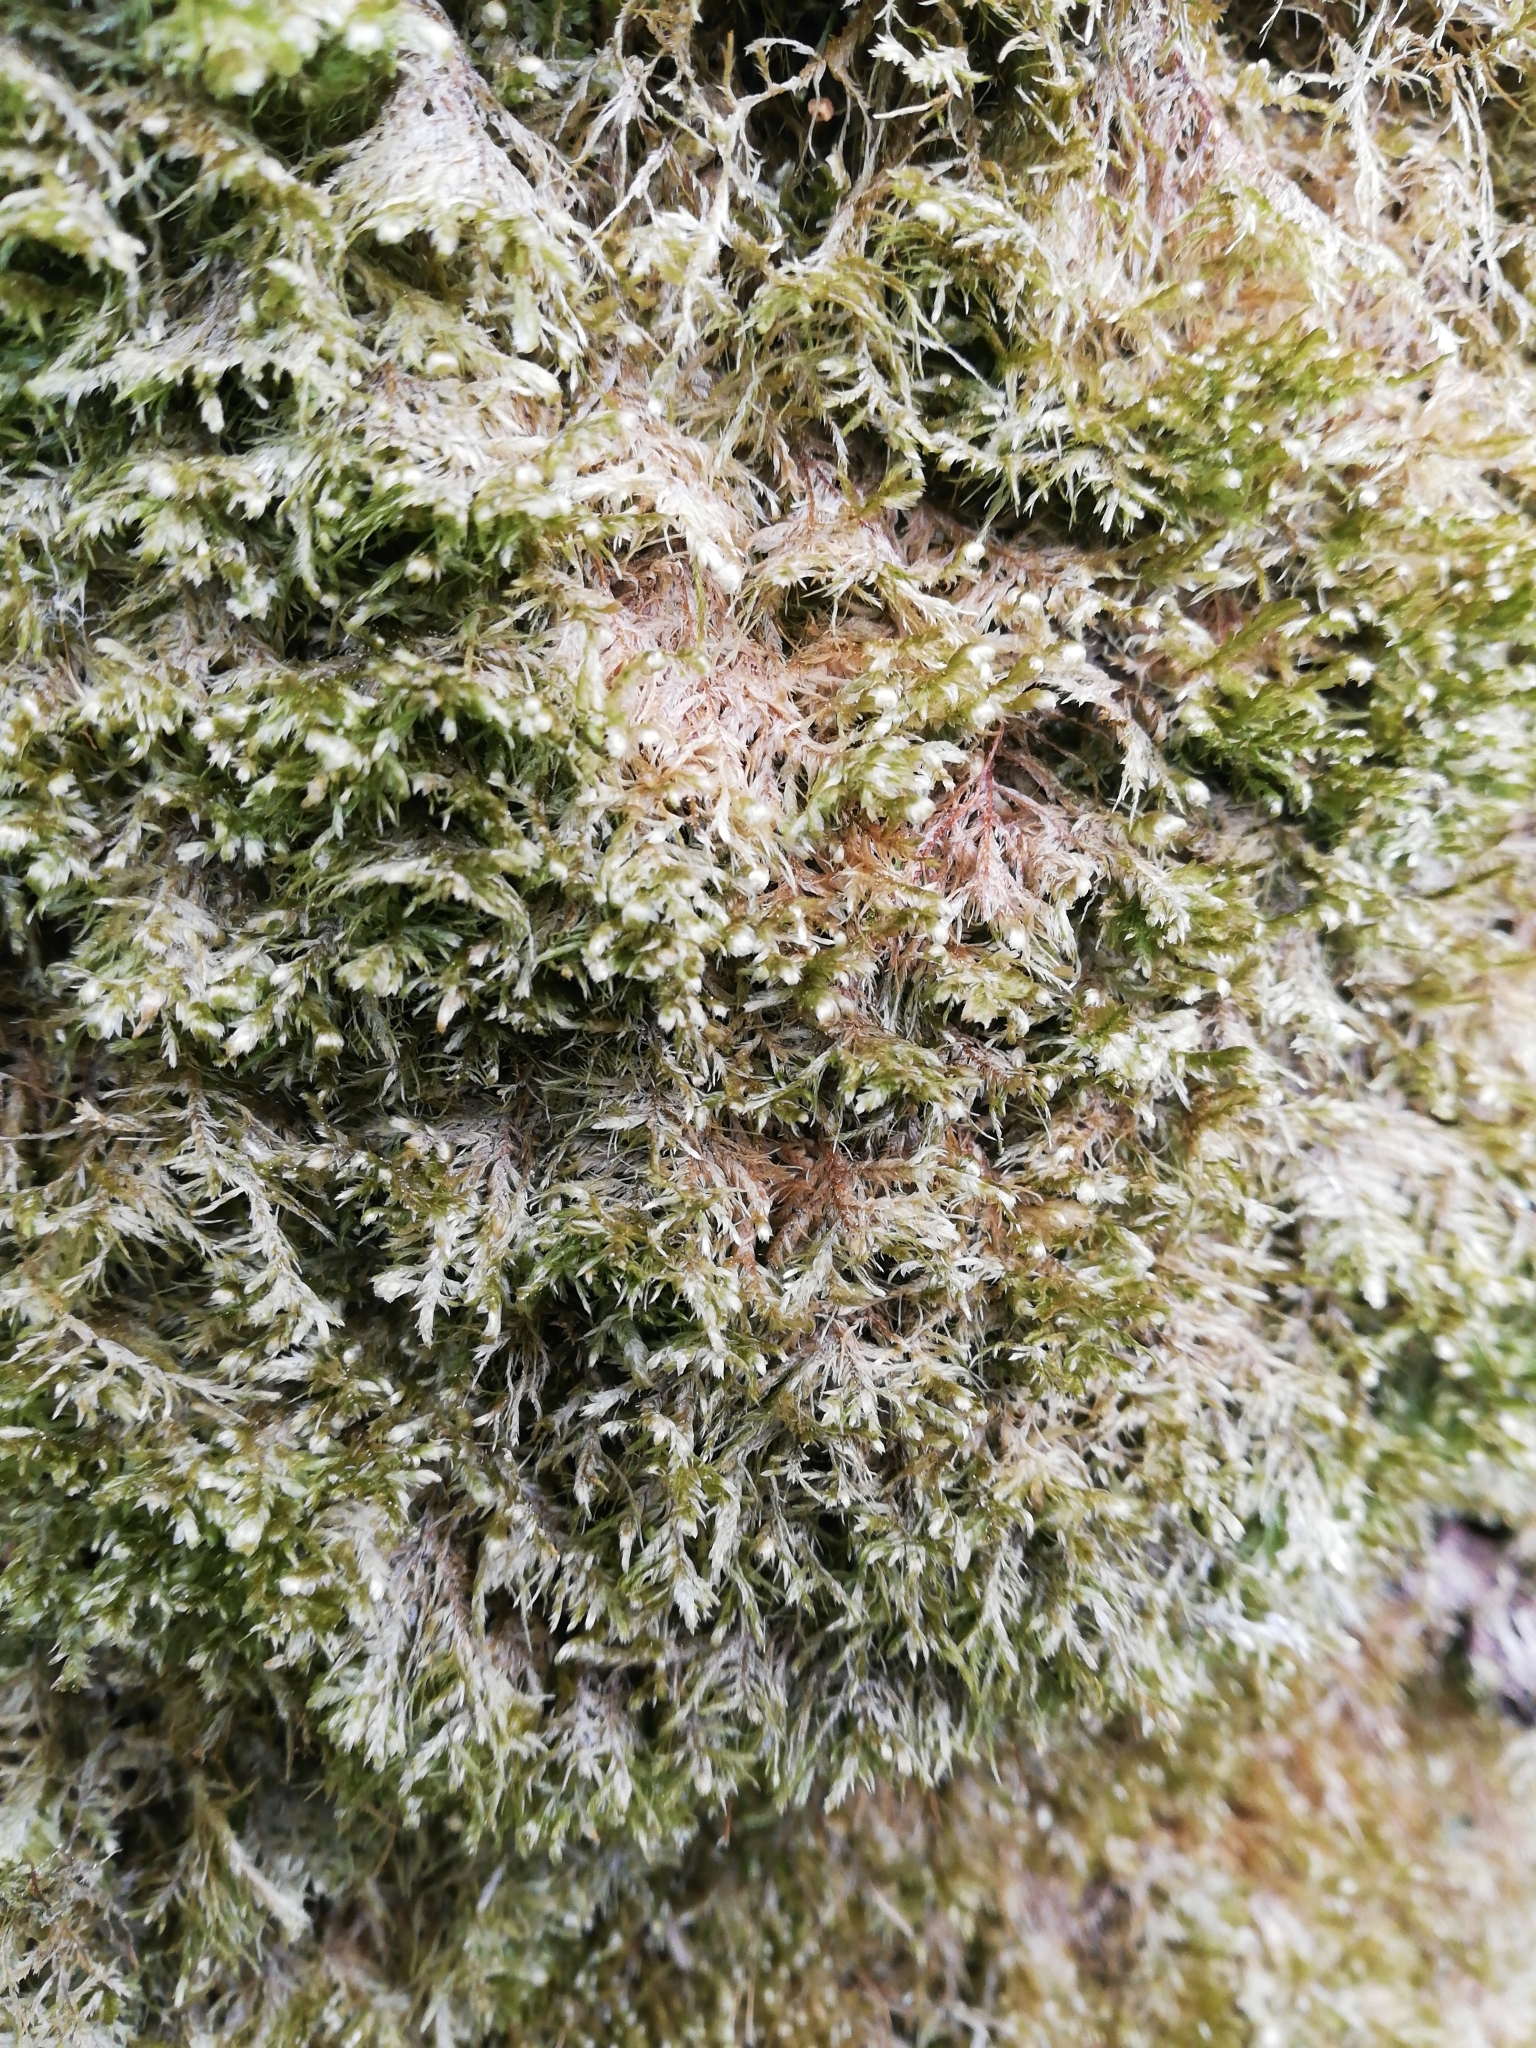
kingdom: Plantae
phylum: Bryophyta
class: Bryopsida
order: Hypnales
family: Neckeraceae
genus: Alleniella
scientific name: Alleniella complanata
